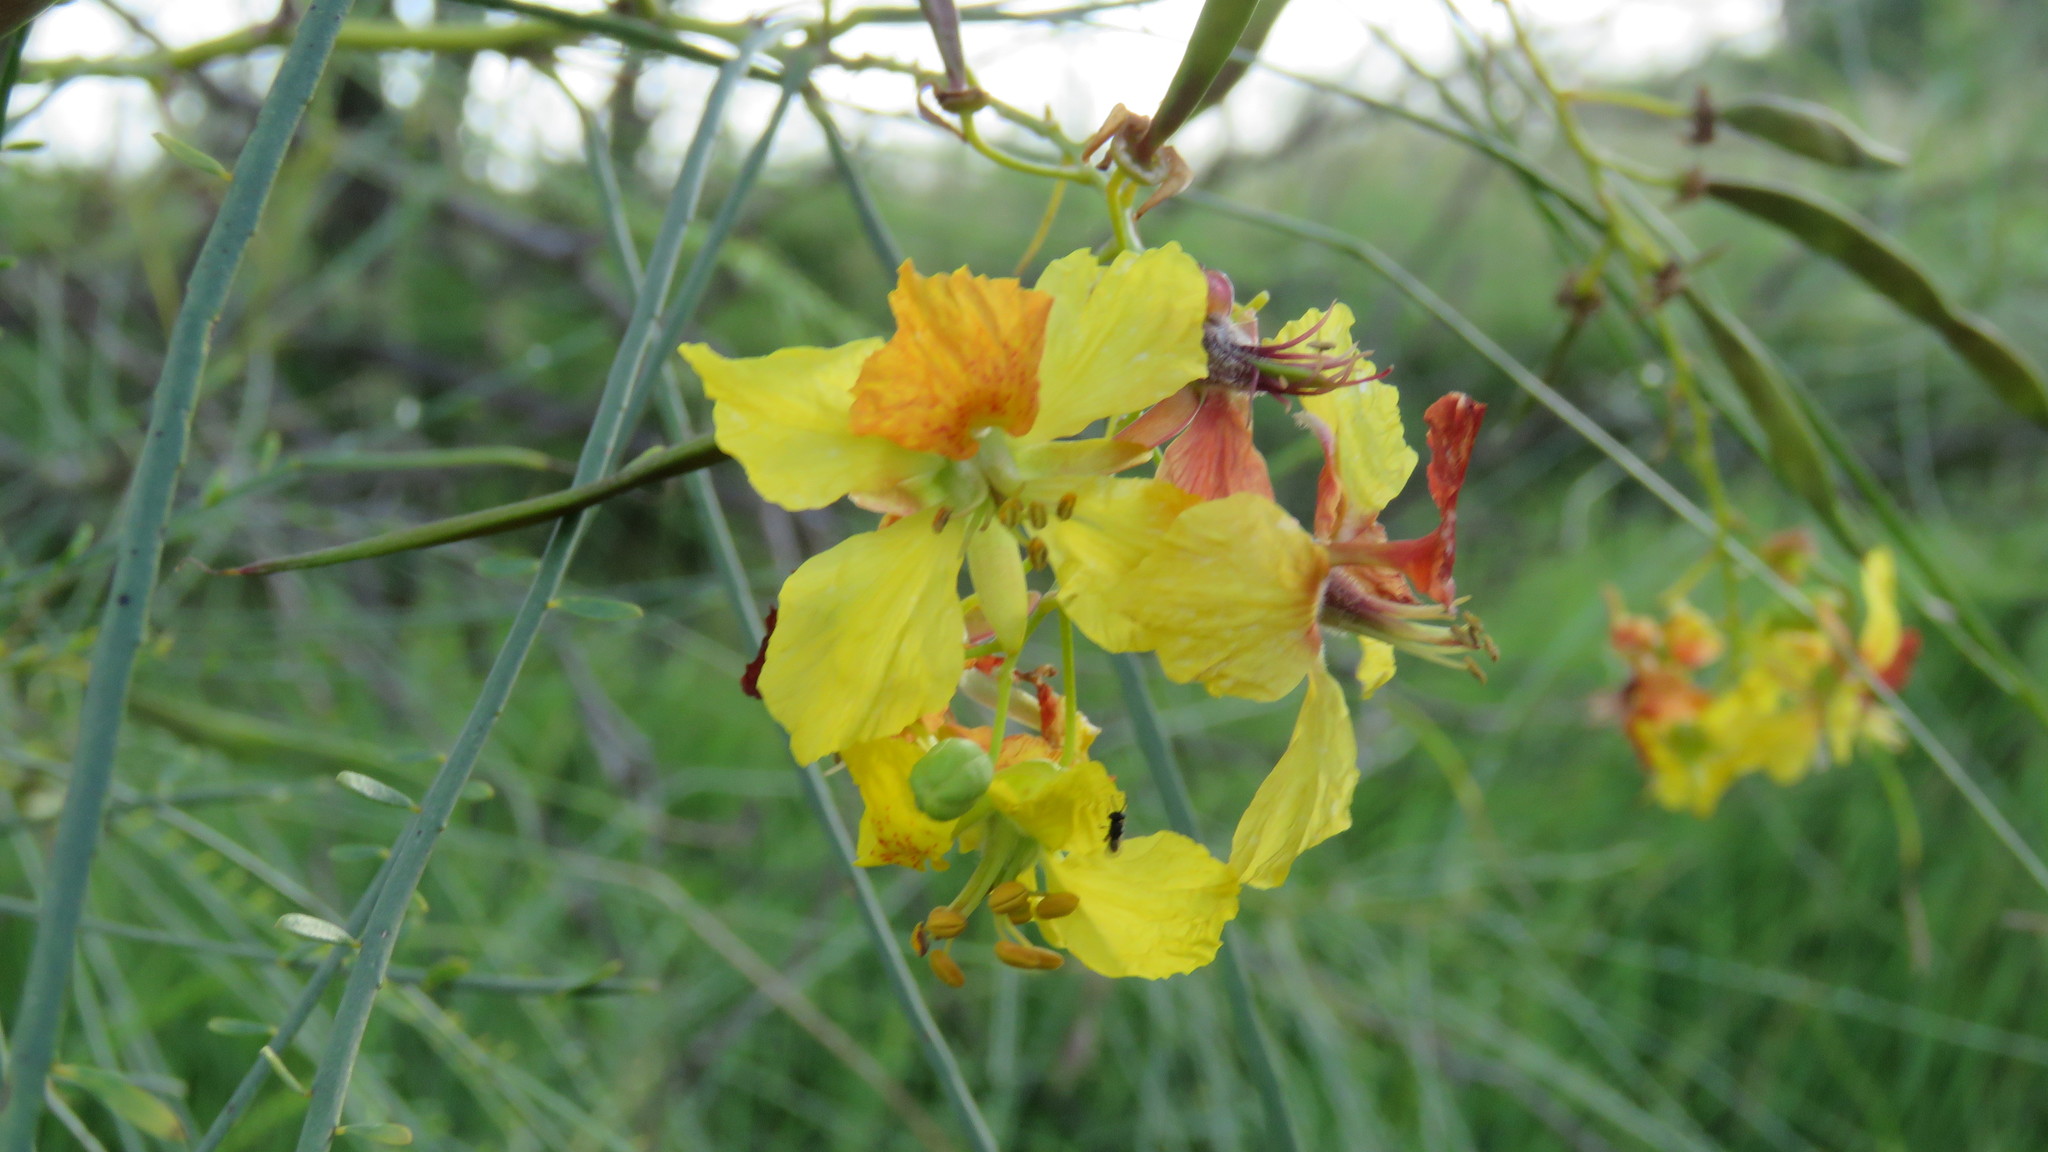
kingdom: Plantae
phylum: Tracheophyta
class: Magnoliopsida
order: Fabales
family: Fabaceae
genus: Parkinsonia
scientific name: Parkinsonia aculeata
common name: Jerusalem thorn
